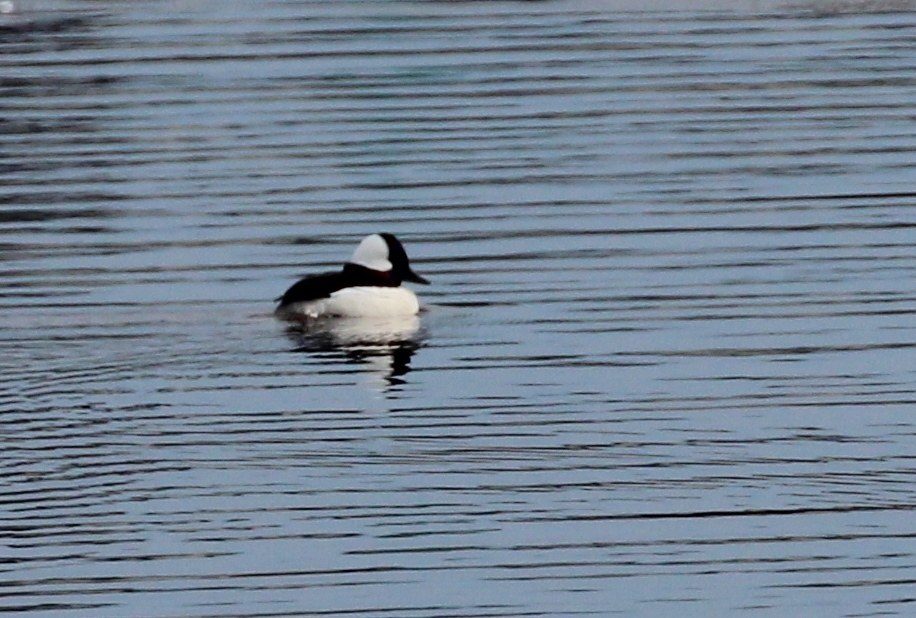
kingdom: Animalia
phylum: Chordata
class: Aves
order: Anseriformes
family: Anatidae
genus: Bucephala
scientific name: Bucephala albeola
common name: Bufflehead
